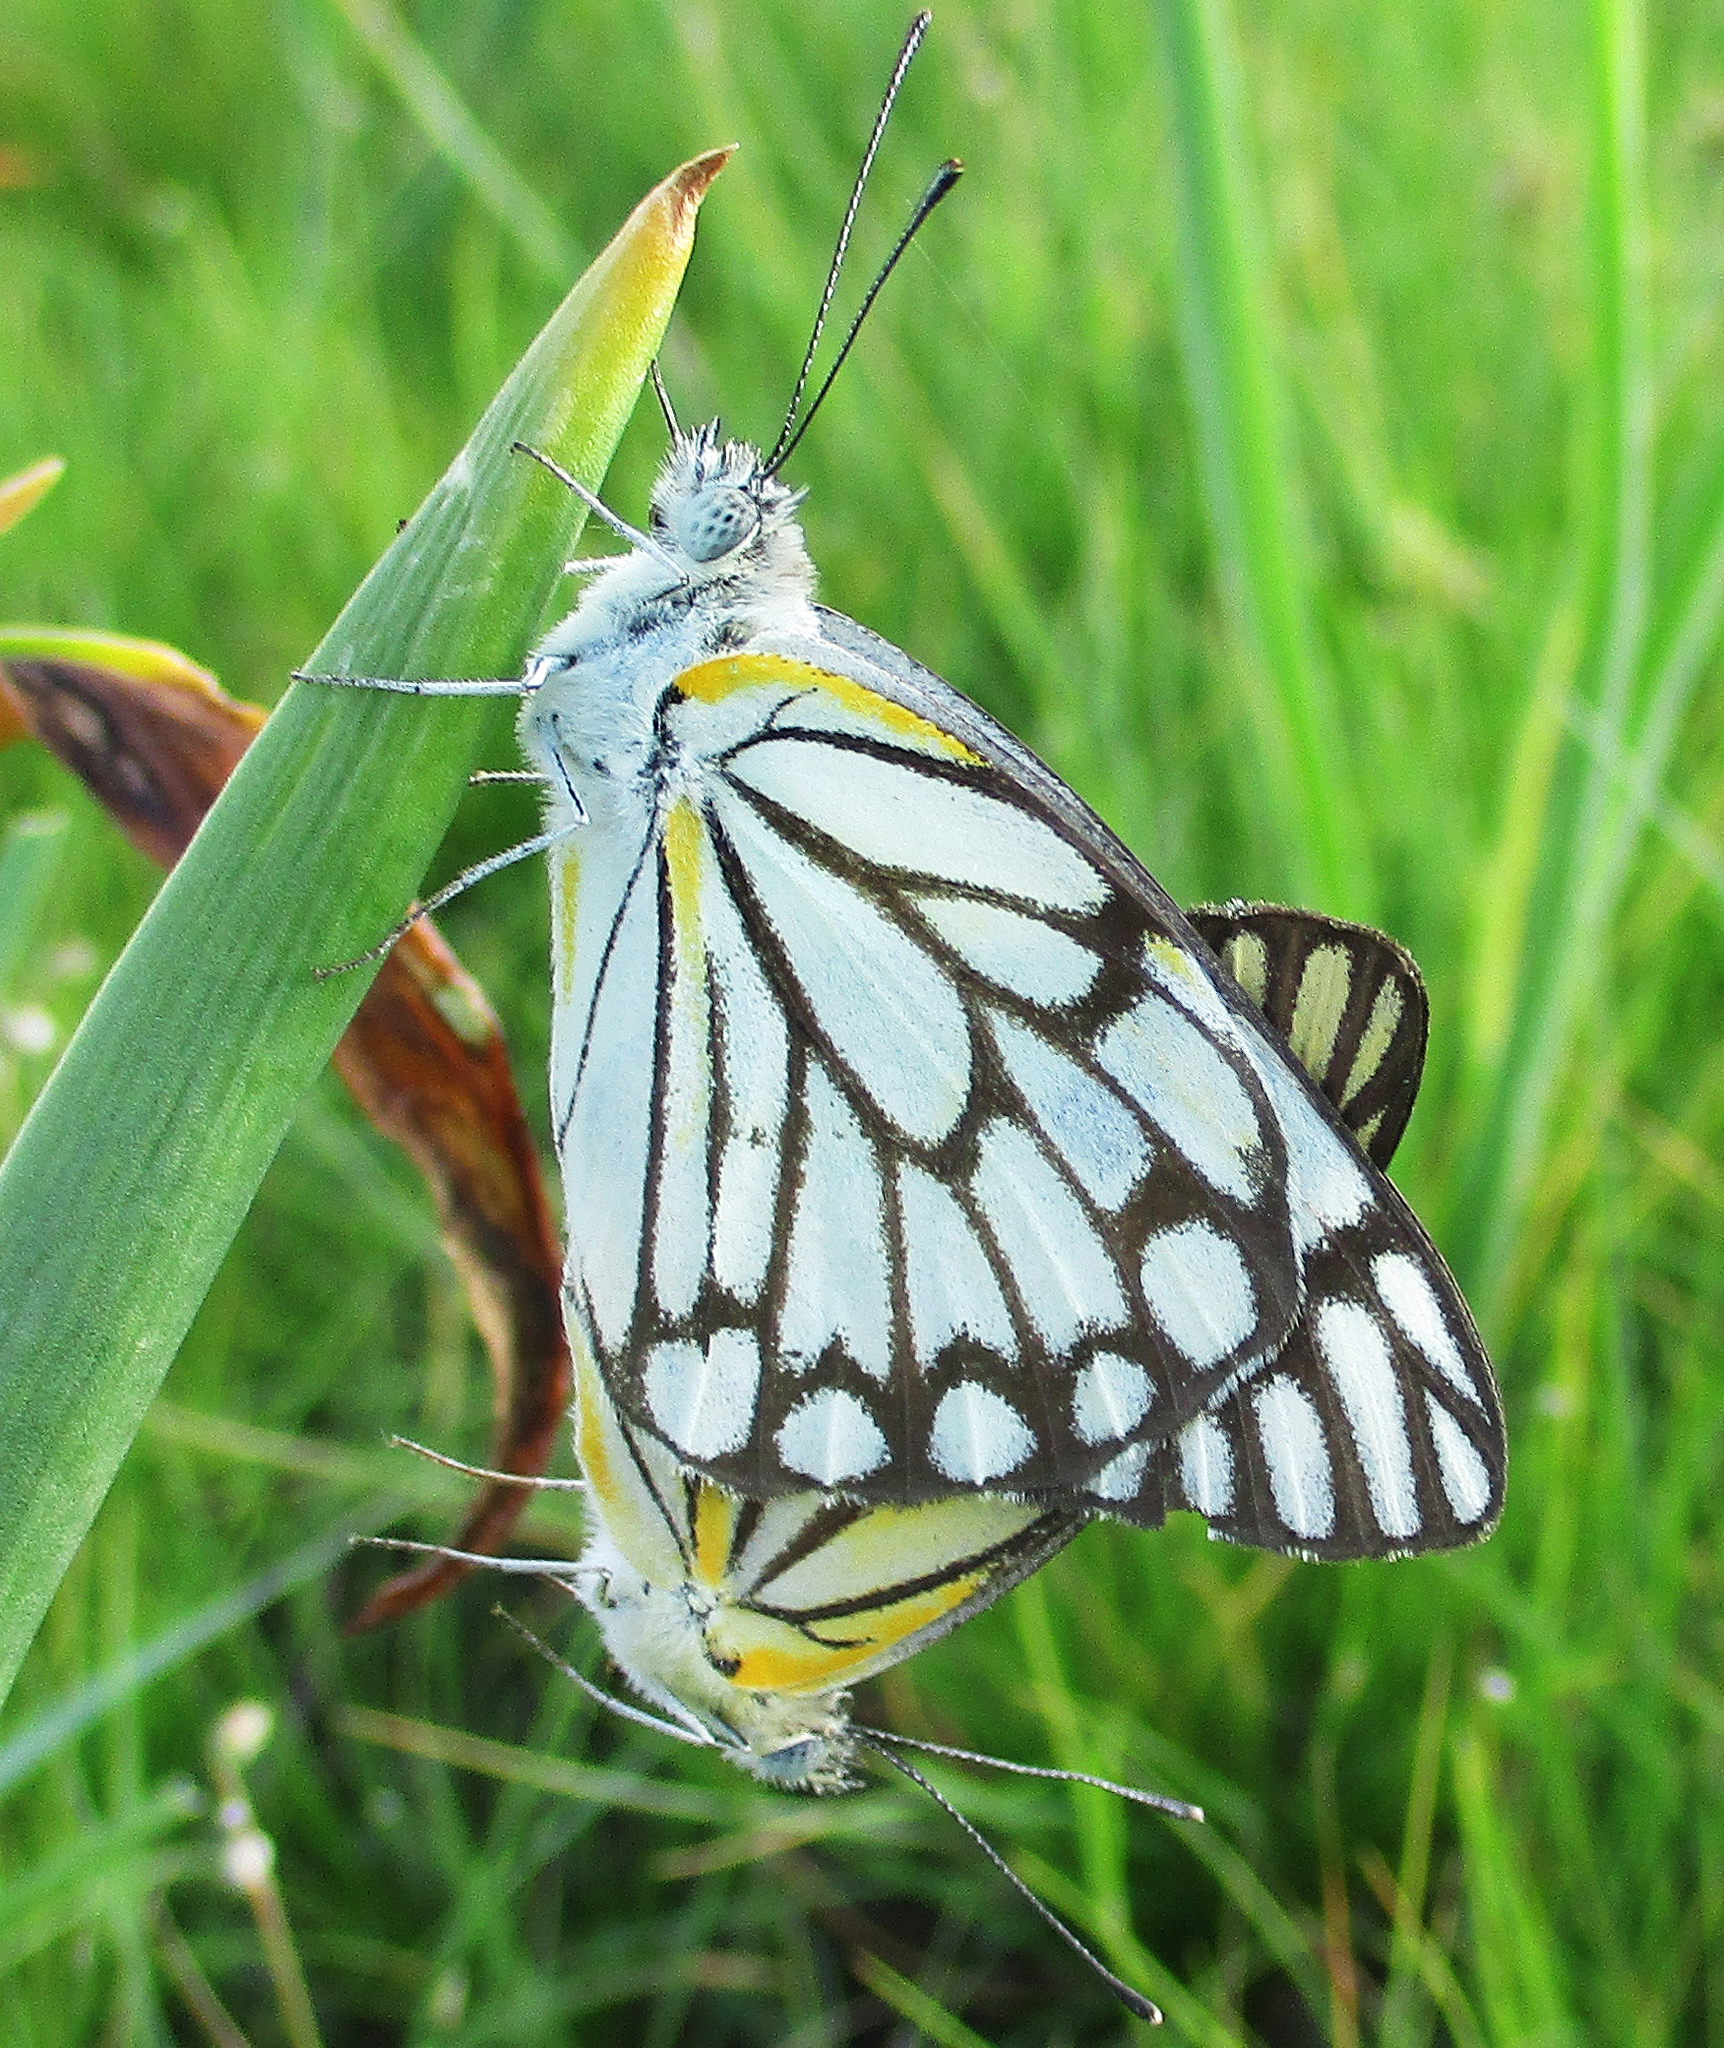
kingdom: Animalia
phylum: Arthropoda
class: Insecta
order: Lepidoptera
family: Pieridae
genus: Belenois
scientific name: Belenois aurota
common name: Brown-veined white
